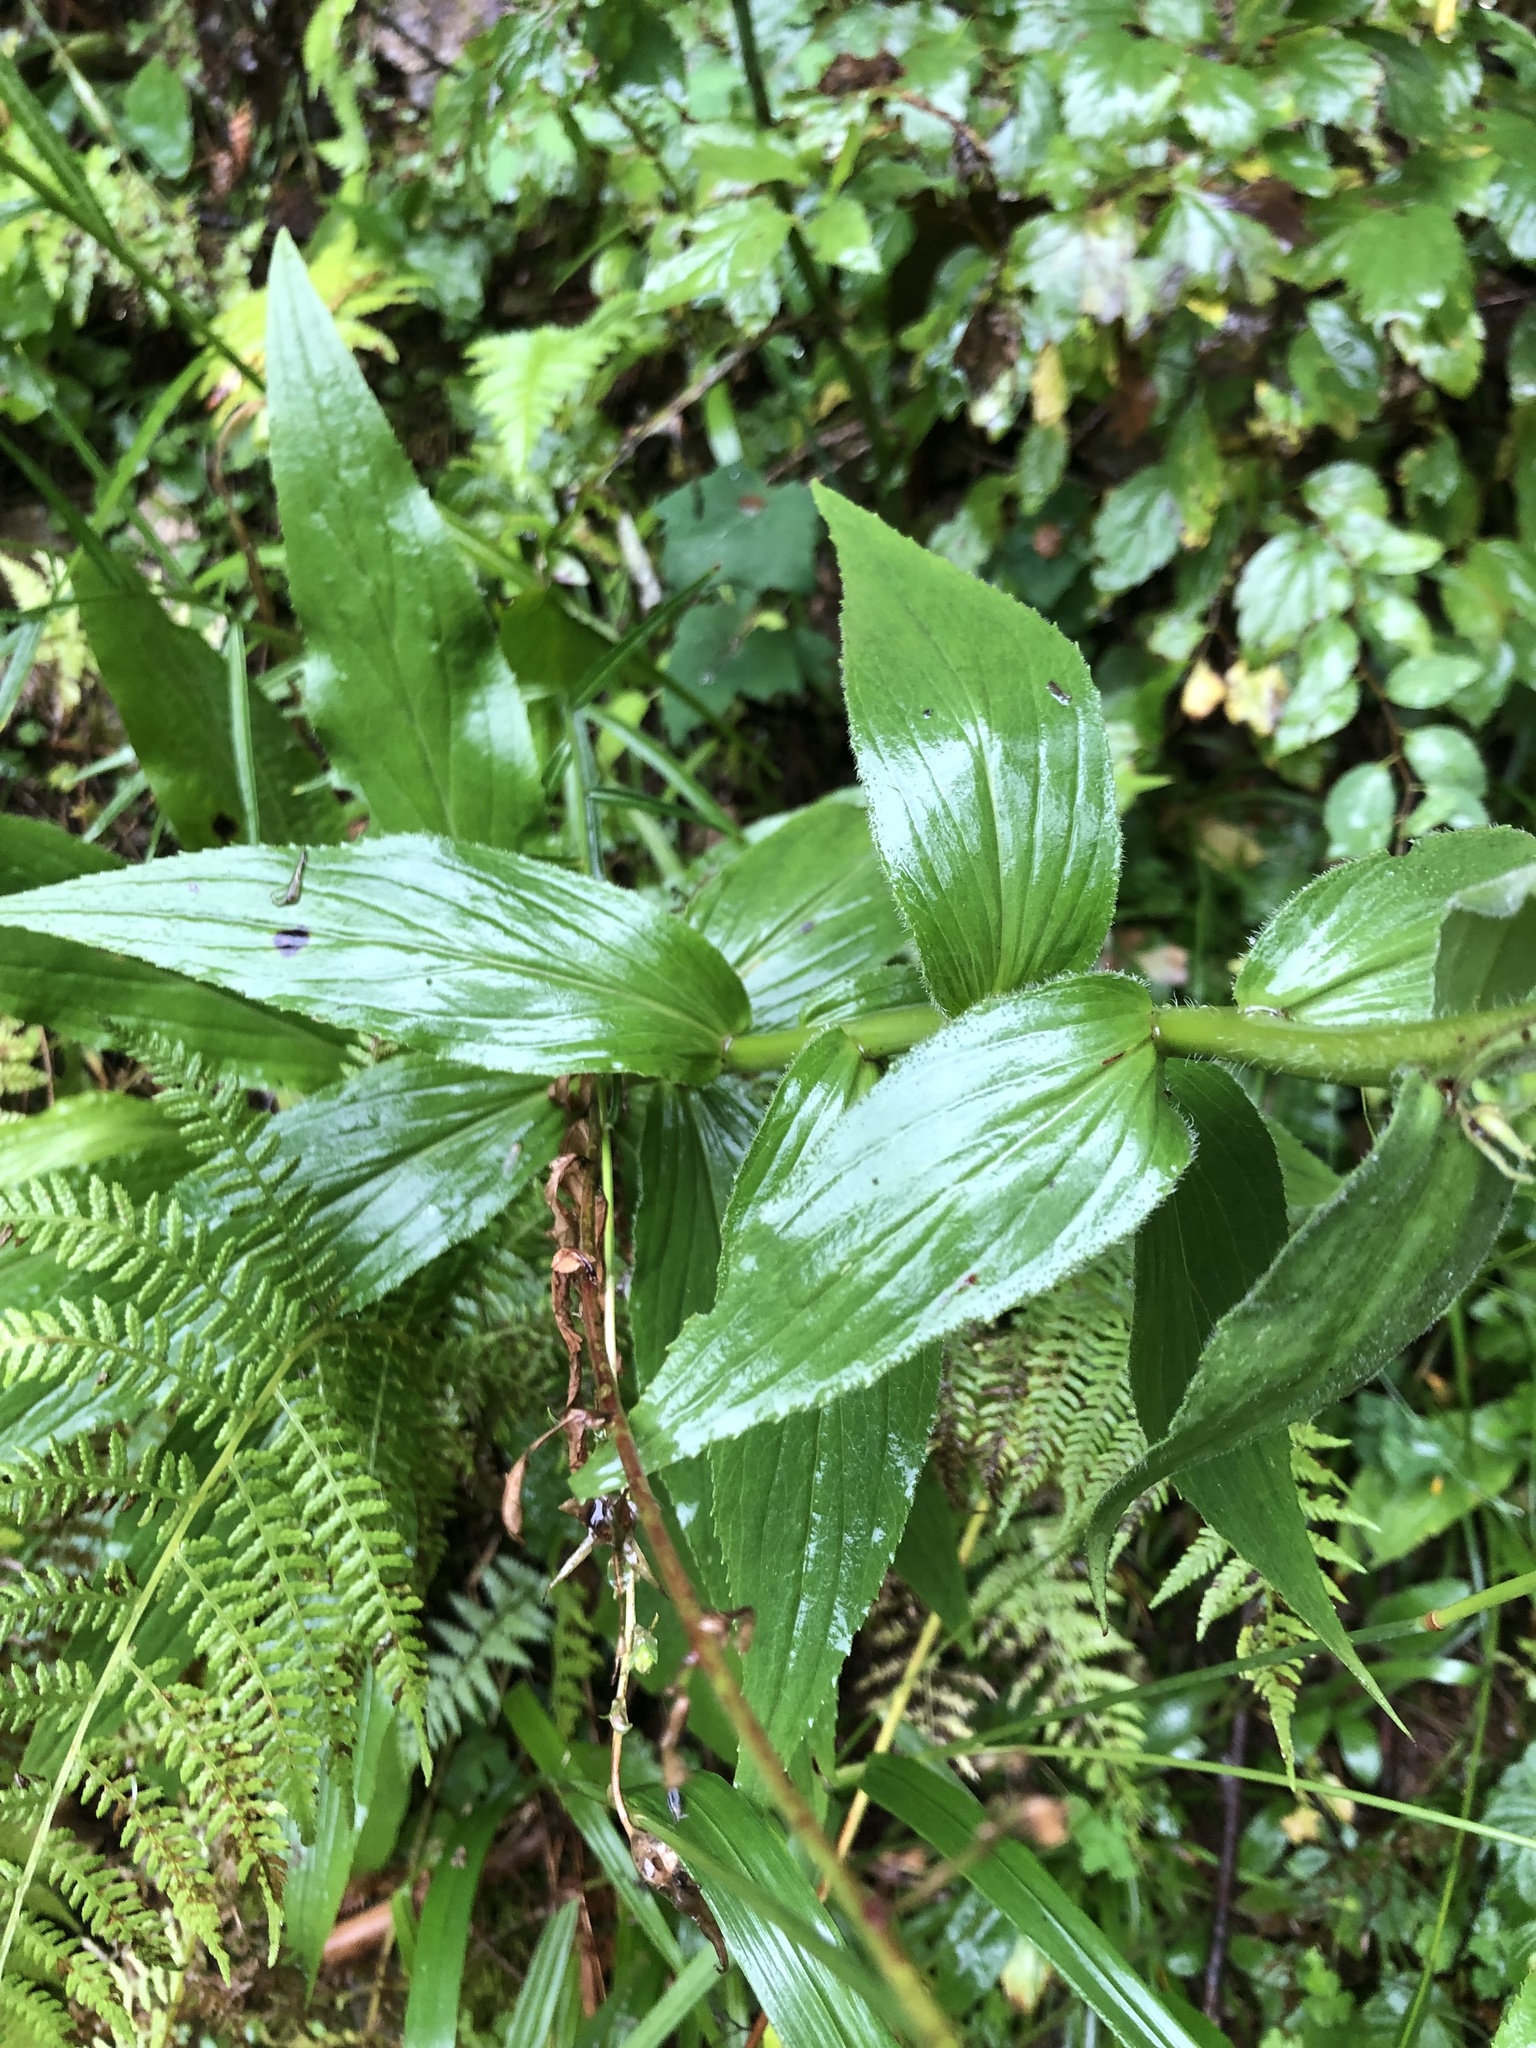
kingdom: Plantae
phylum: Tracheophyta
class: Magnoliopsida
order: Lamiales
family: Plantaginaceae
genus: Digitalis
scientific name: Digitalis grandiflora
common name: Yellow foxglove
